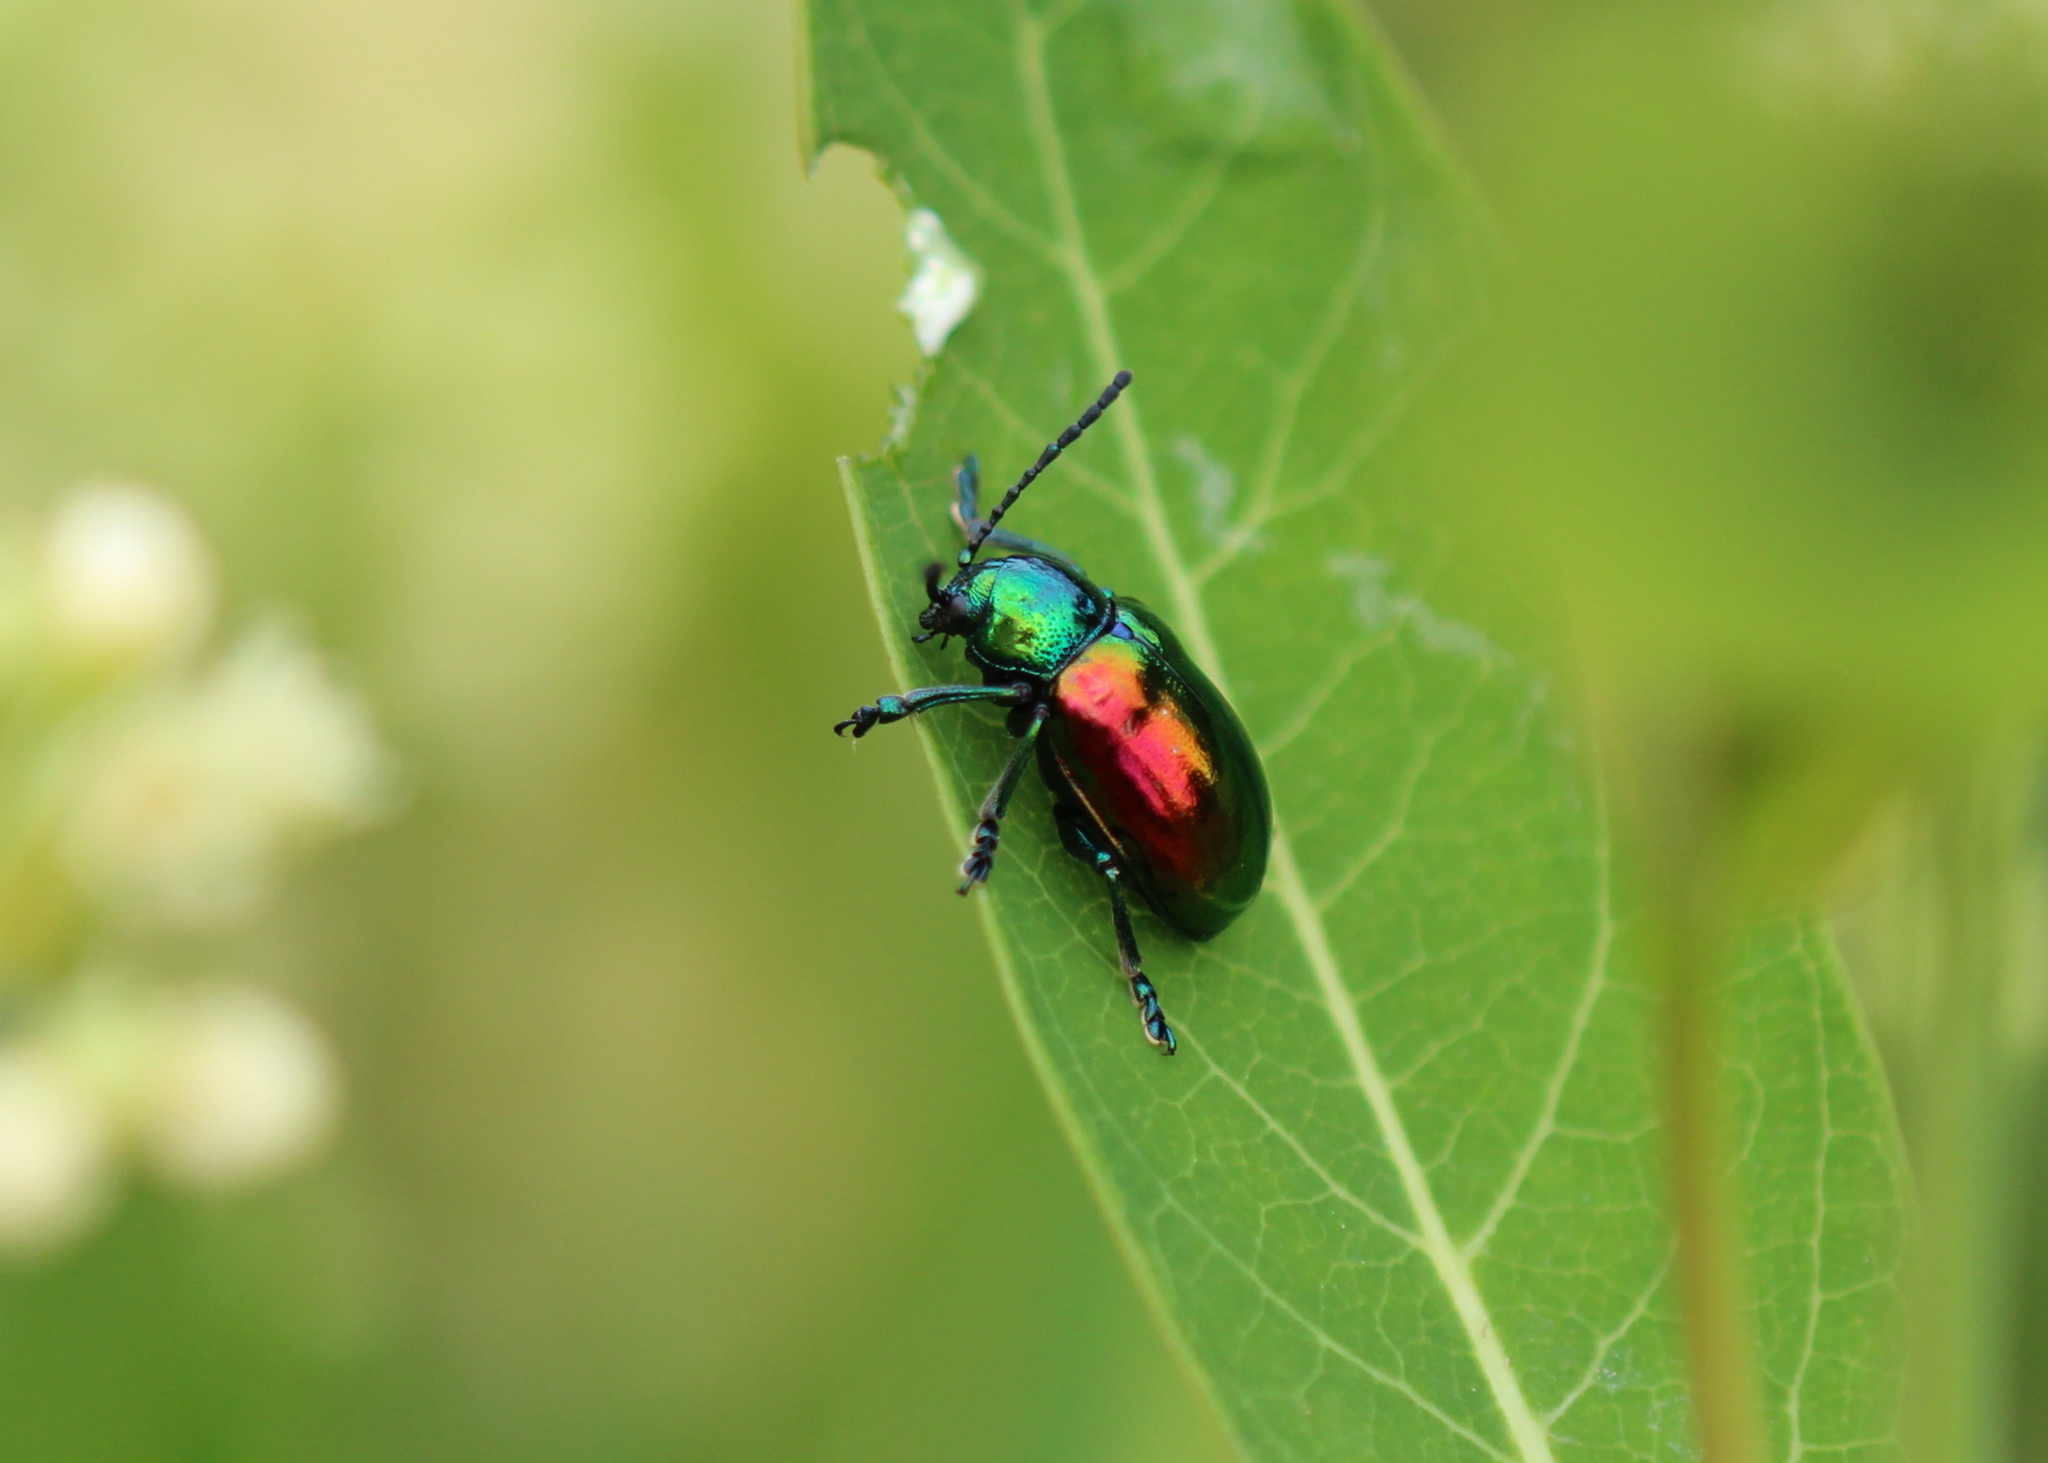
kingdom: Animalia
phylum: Arthropoda
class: Insecta
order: Coleoptera
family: Chrysomelidae
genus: Chrysochus
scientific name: Chrysochus auratus
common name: Dogbane leaf beetle
